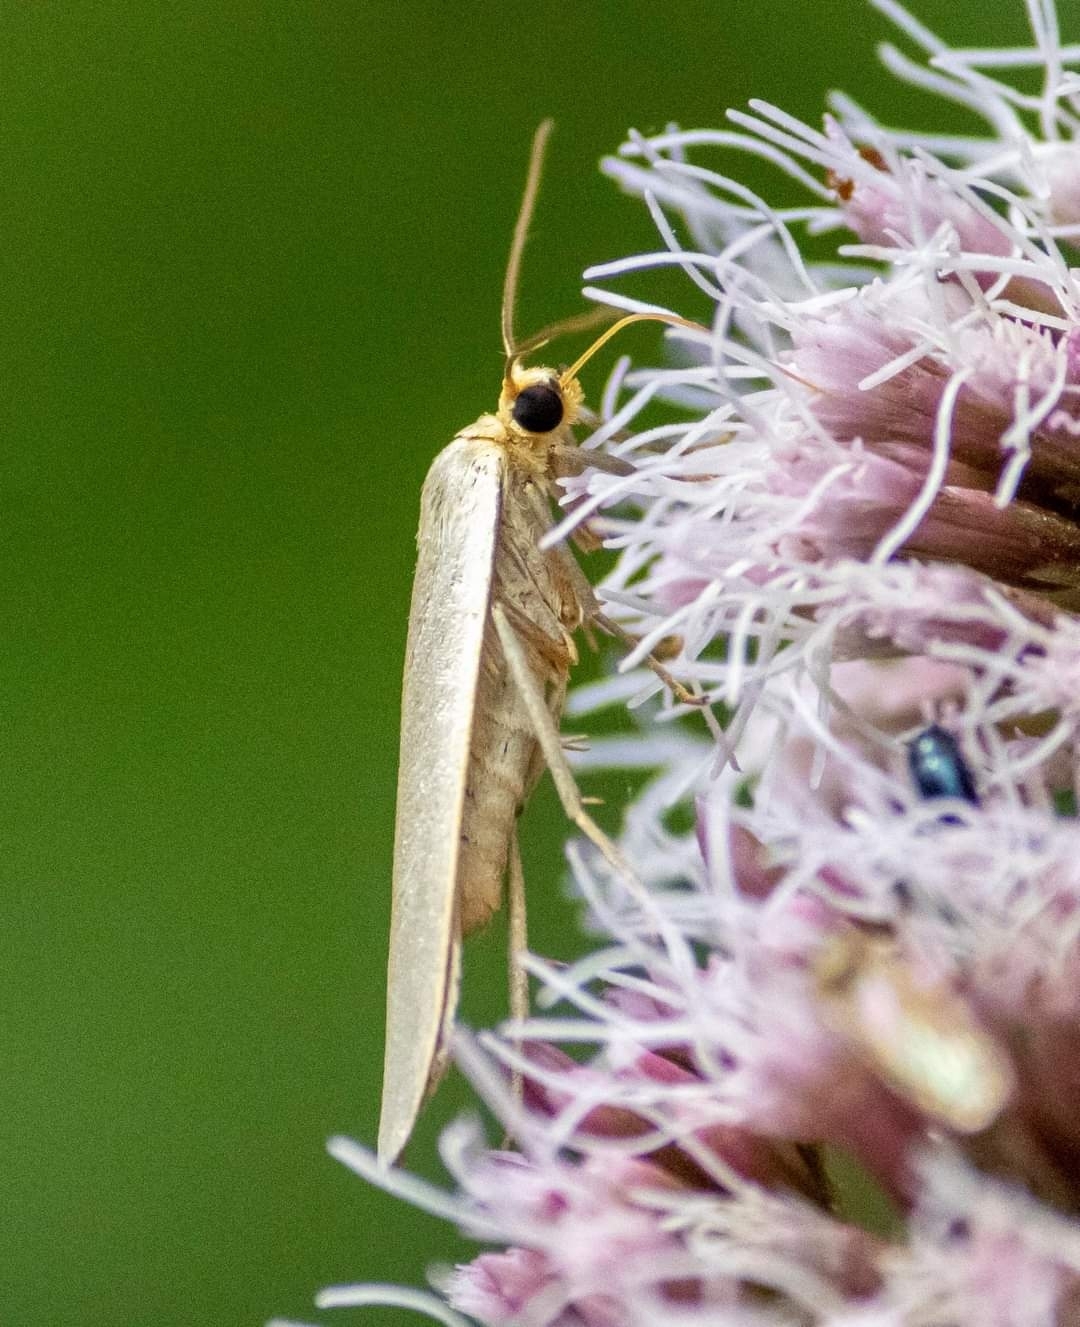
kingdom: Animalia
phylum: Arthropoda
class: Insecta
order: Lepidoptera
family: Erebidae
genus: Collita
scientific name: Collita griseola
